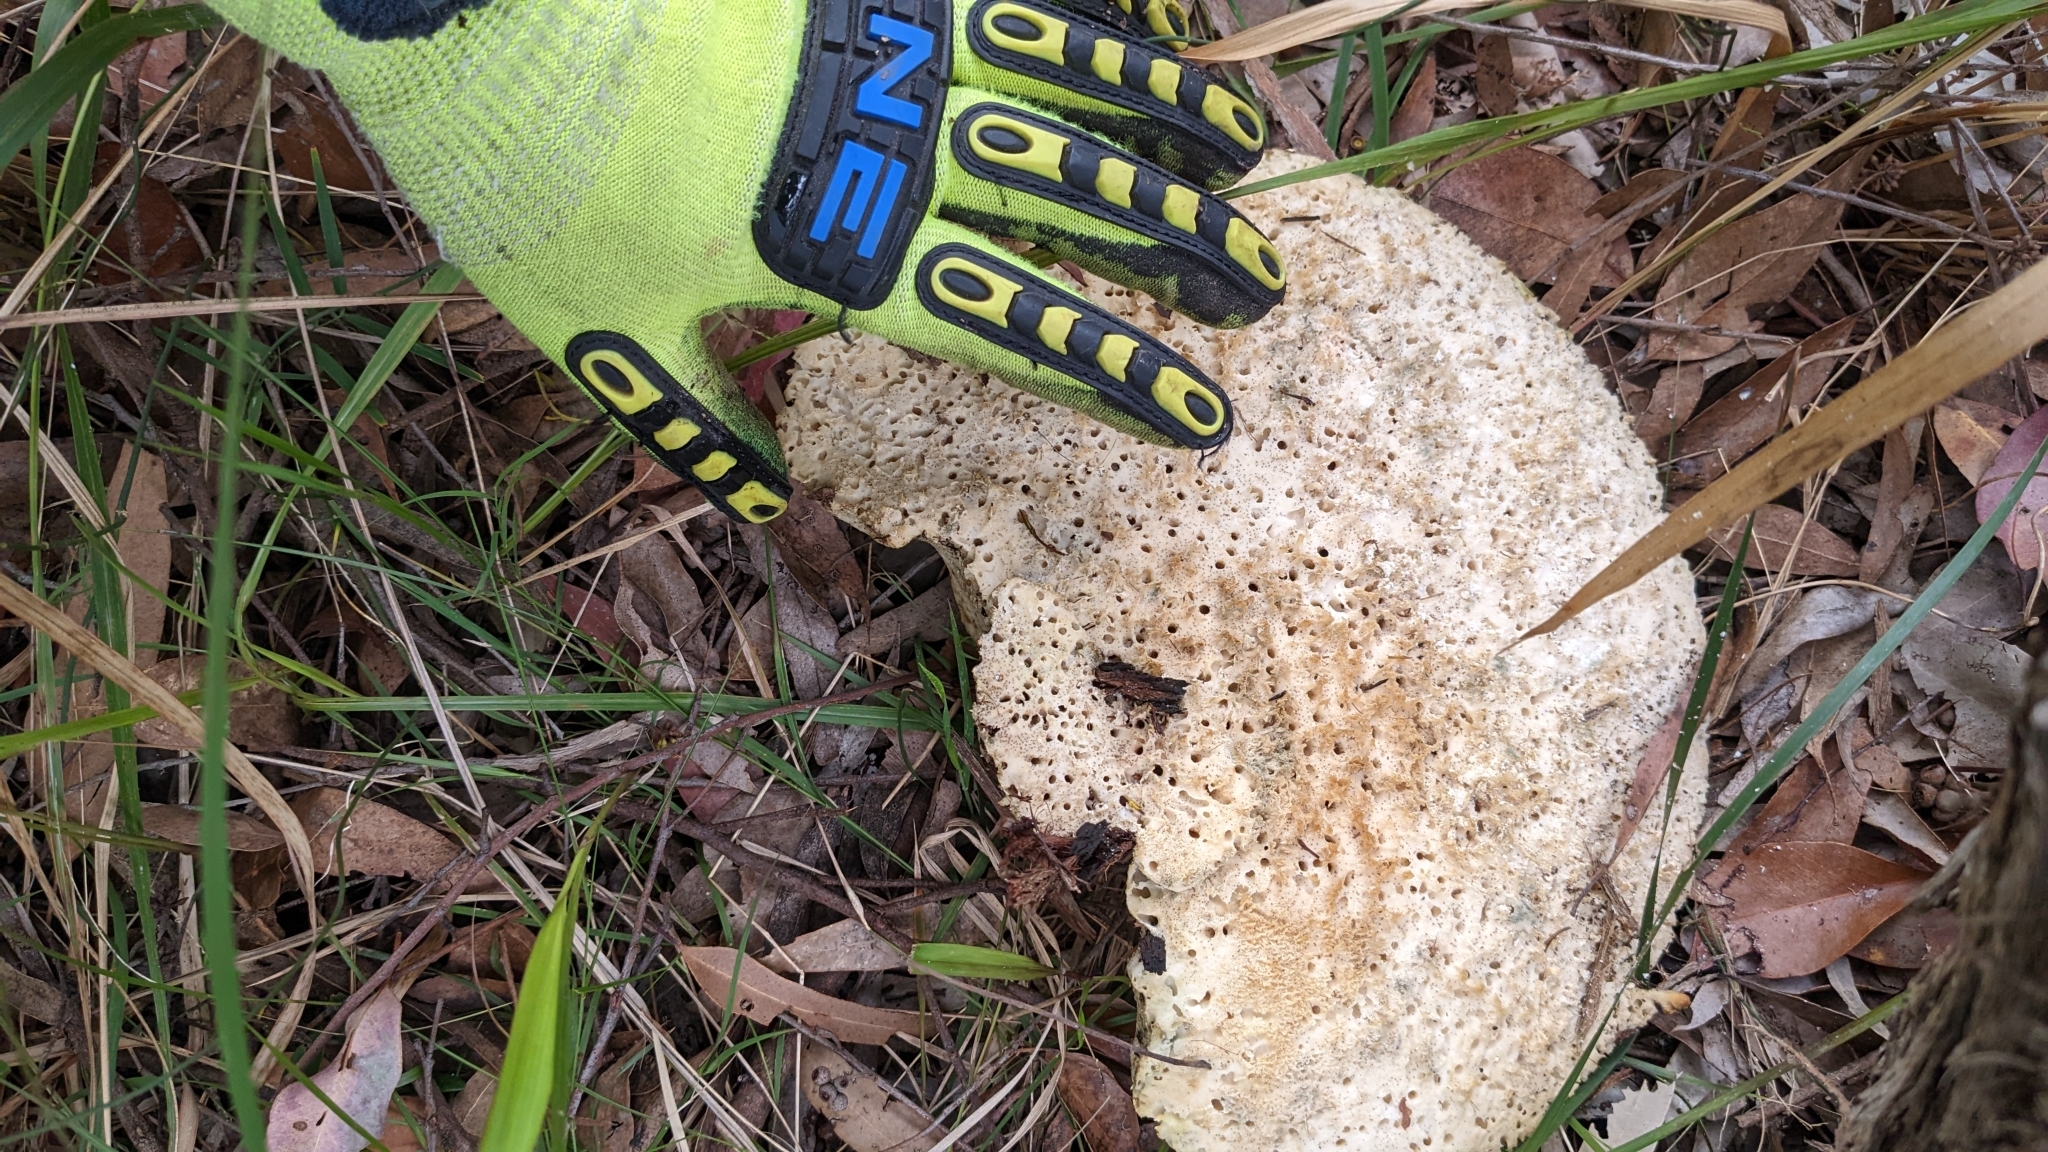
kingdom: Fungi
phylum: Basidiomycota
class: Agaricomycetes
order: Polyporales
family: Laetiporaceae
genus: Laetiporus
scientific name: Laetiporus portentosus
